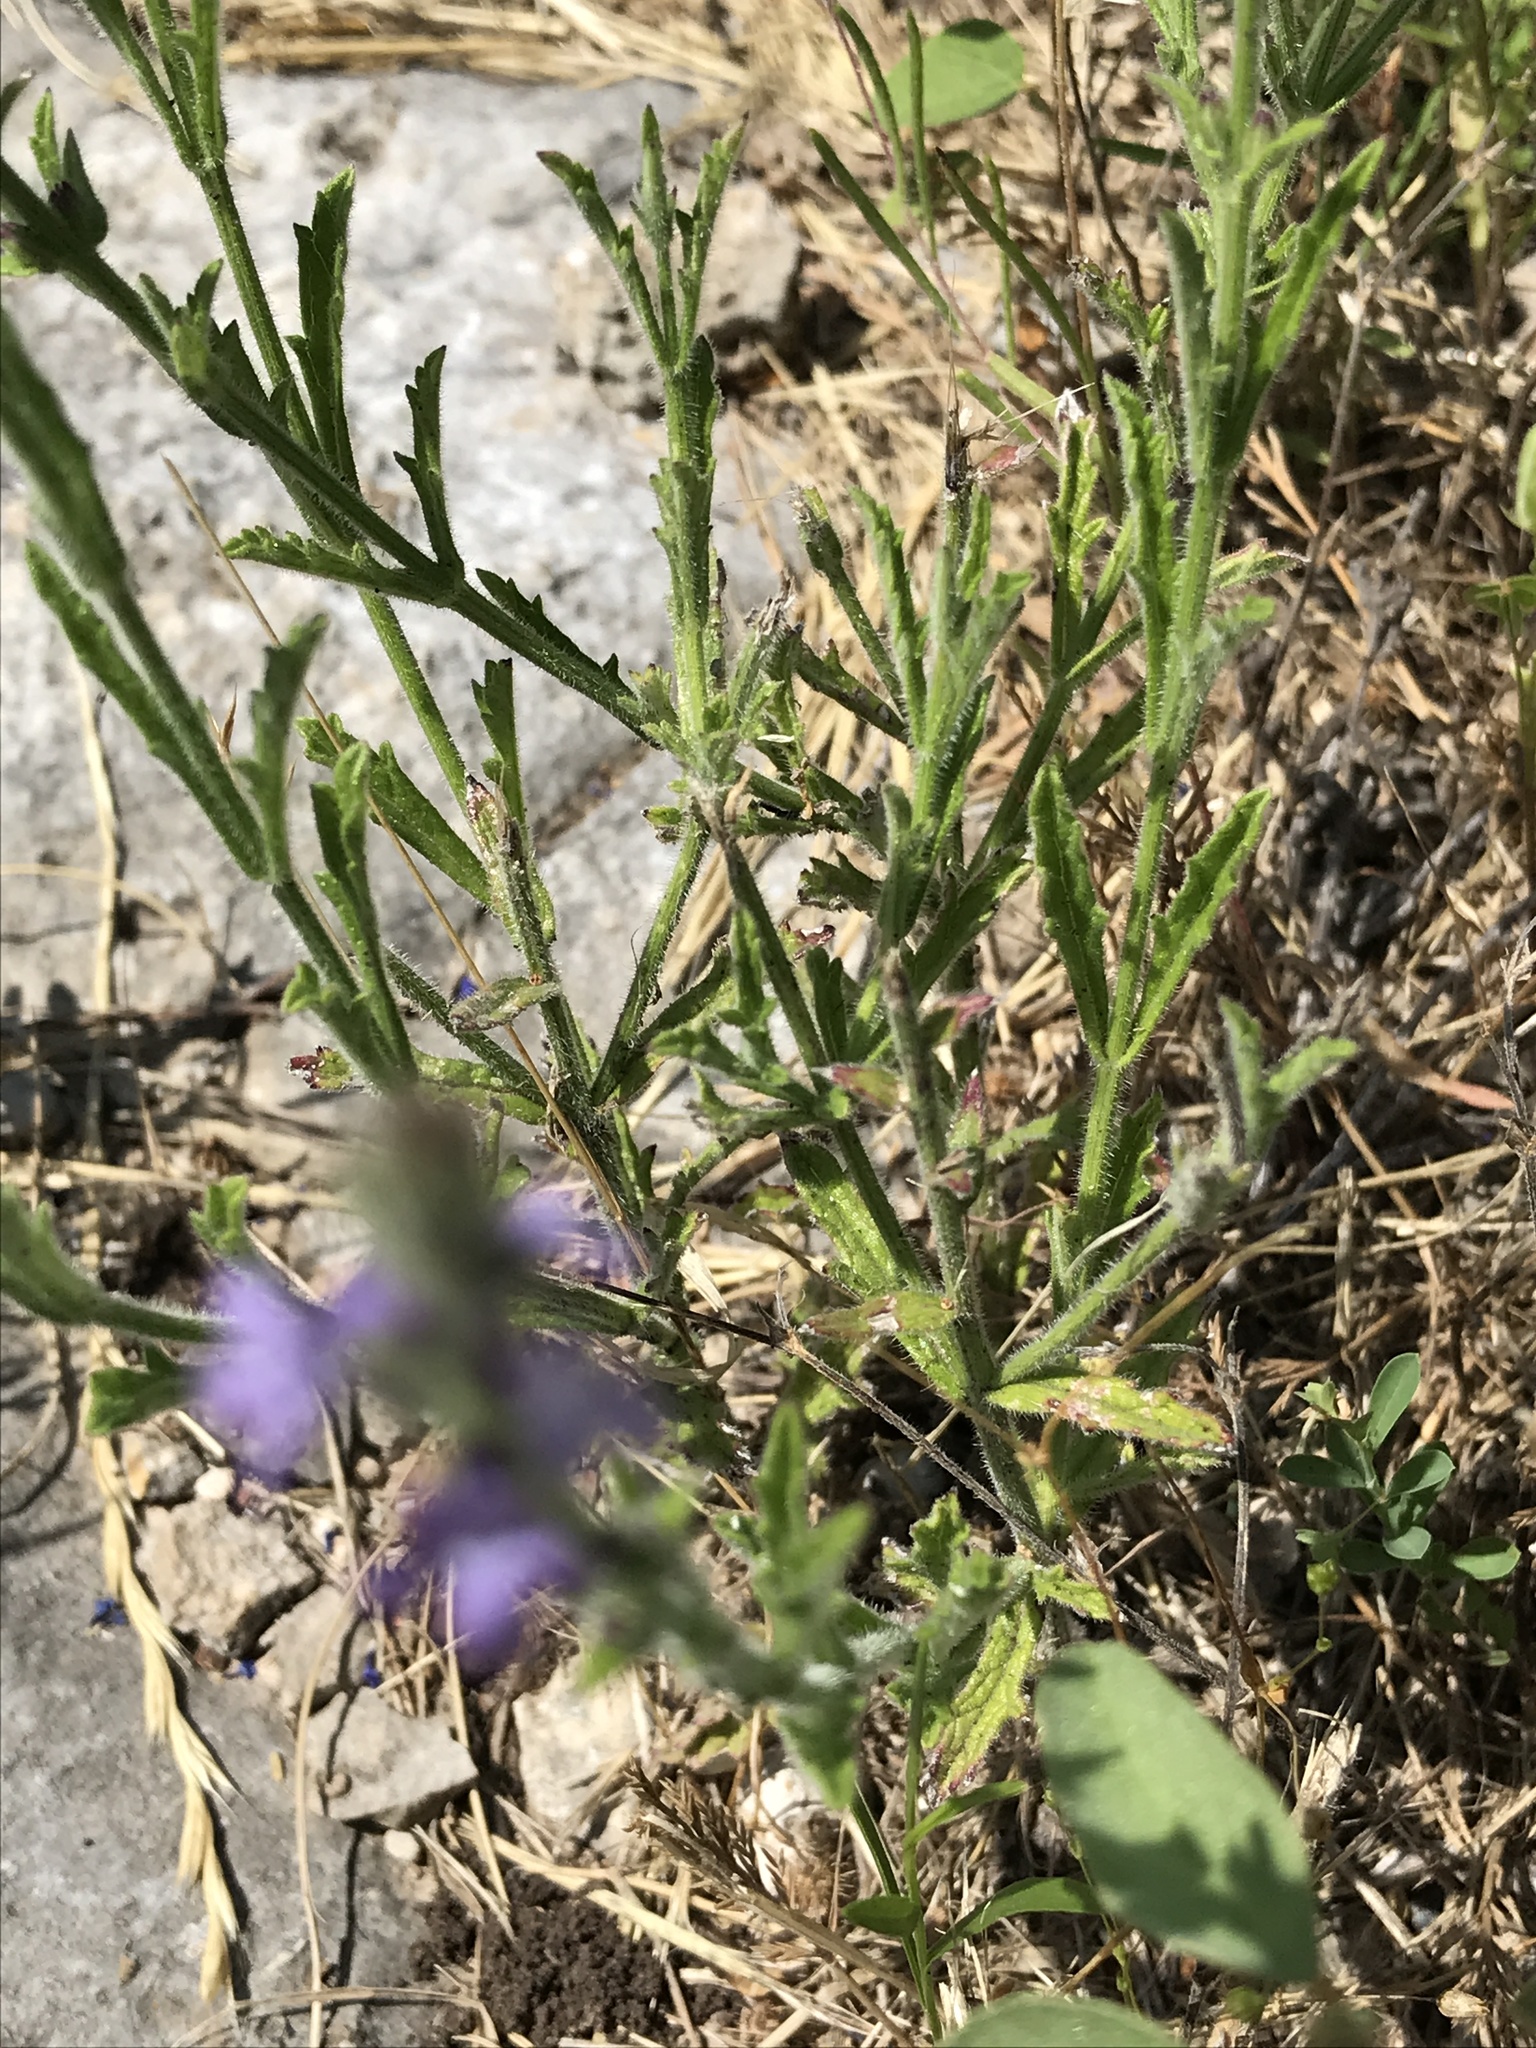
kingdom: Plantae
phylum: Tracheophyta
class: Magnoliopsida
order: Lamiales
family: Verbenaceae
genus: Verbena
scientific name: Verbena canescens
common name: Gray vervain
